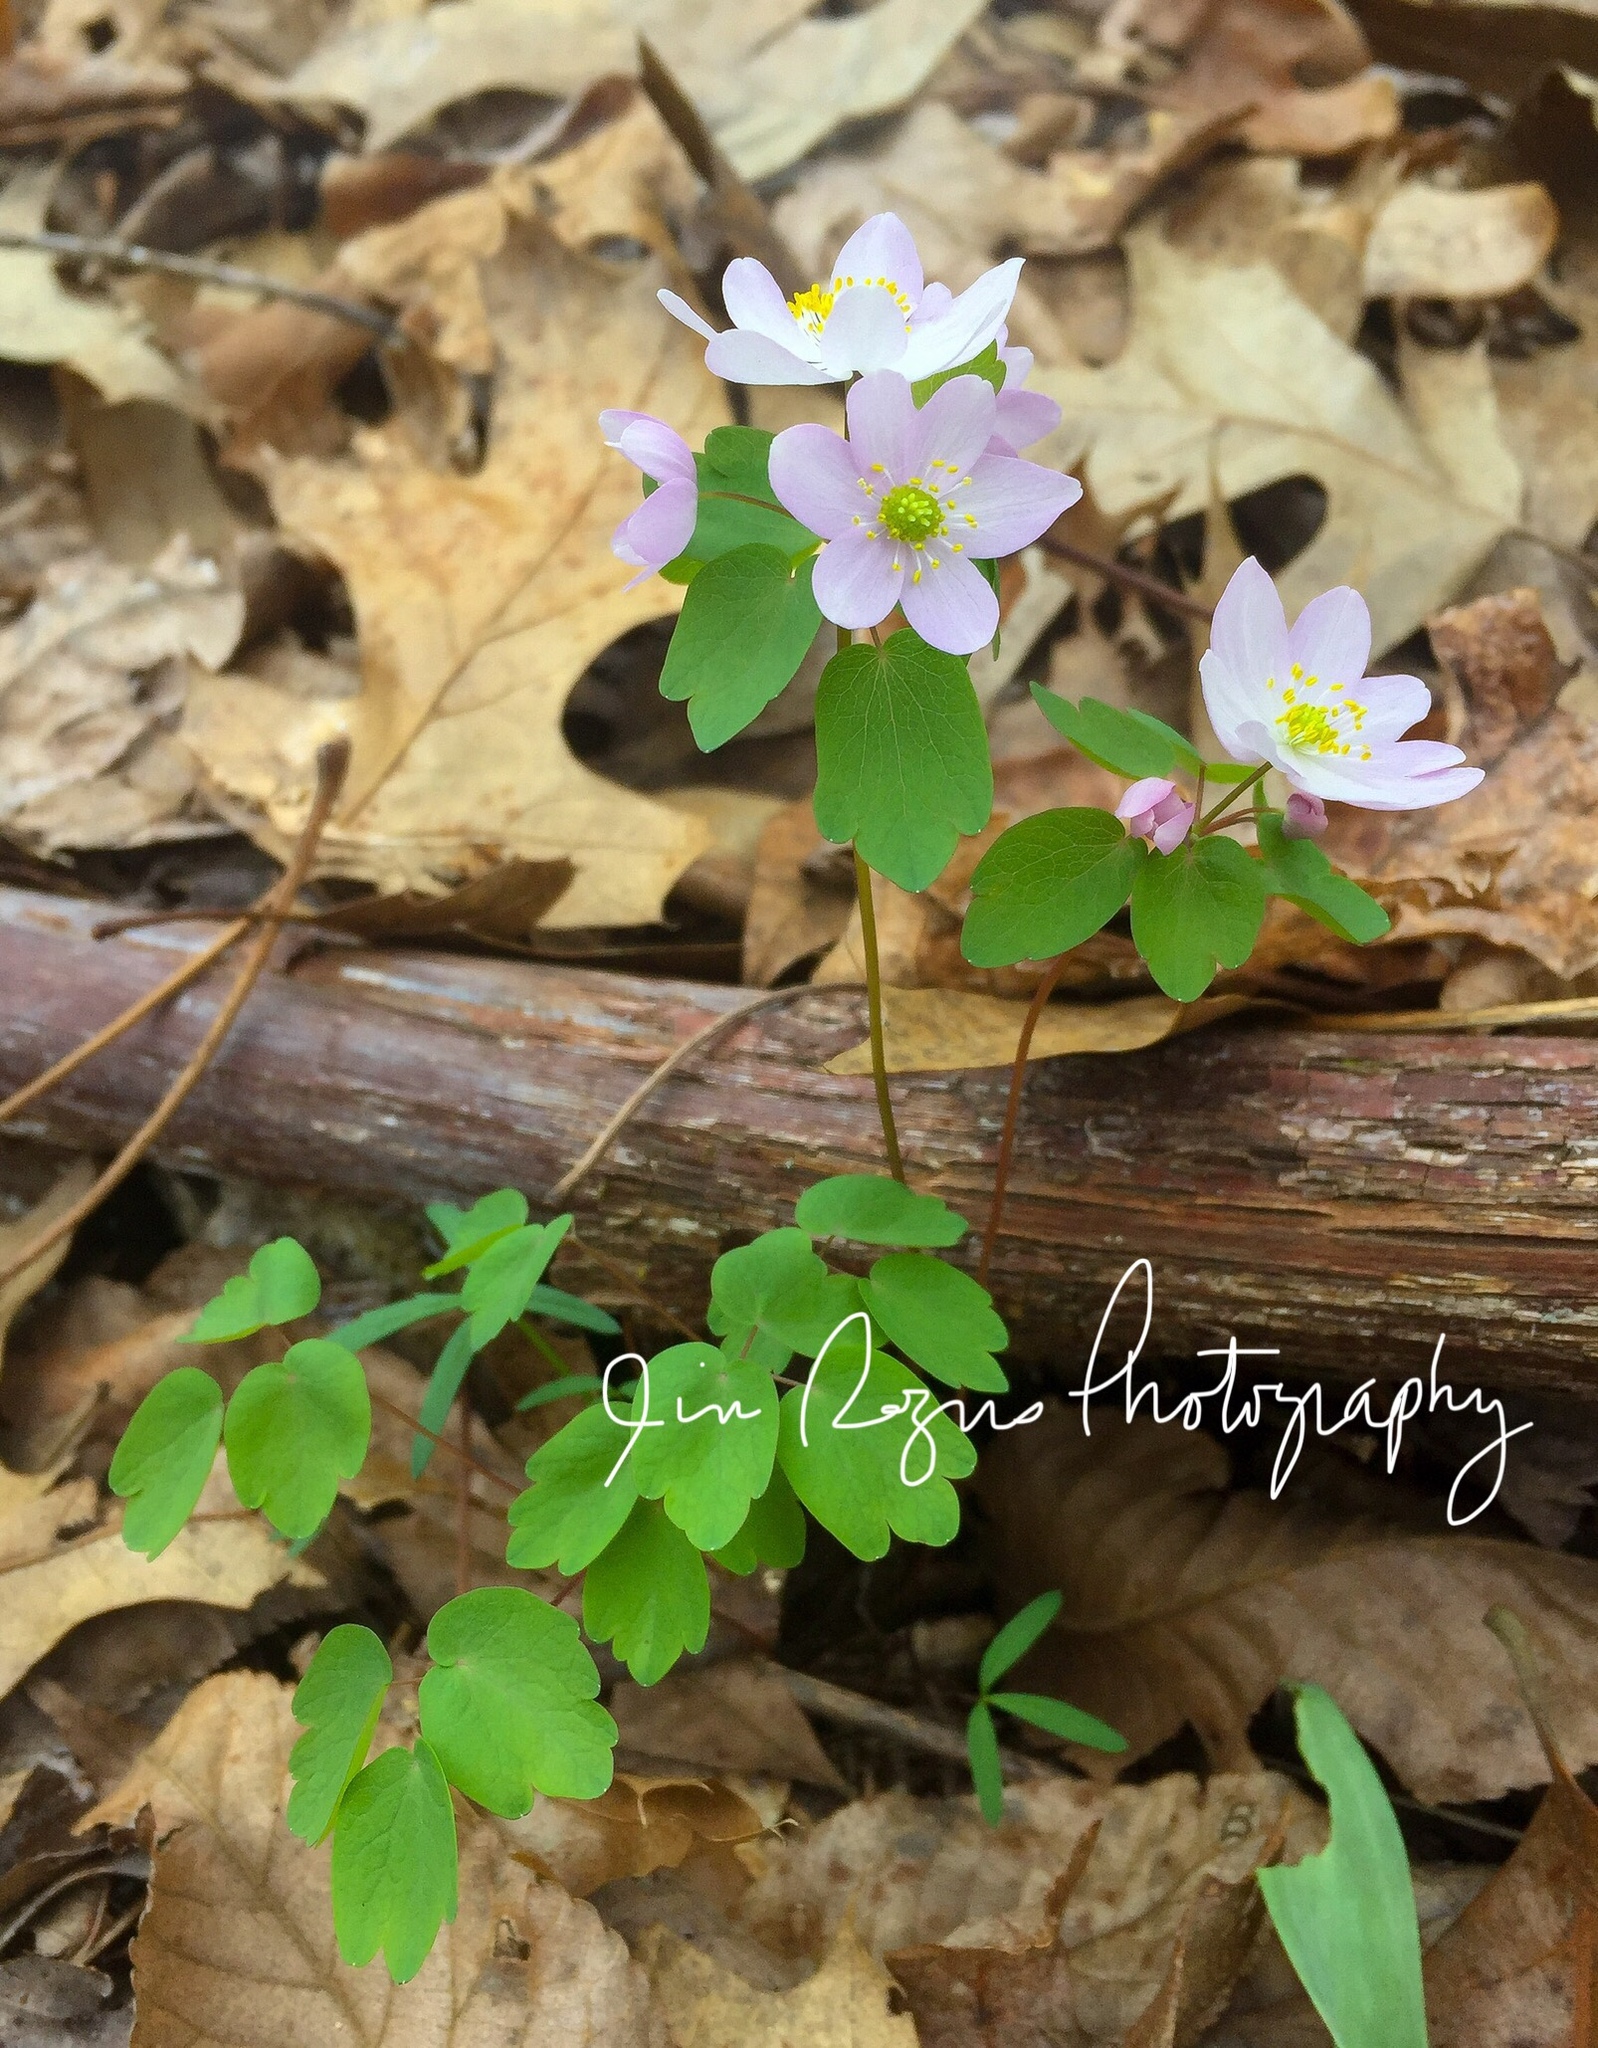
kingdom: Plantae
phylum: Tracheophyta
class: Magnoliopsida
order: Ranunculales
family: Ranunculaceae
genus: Thalictrum
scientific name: Thalictrum thalictroides
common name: Rue-anemone
